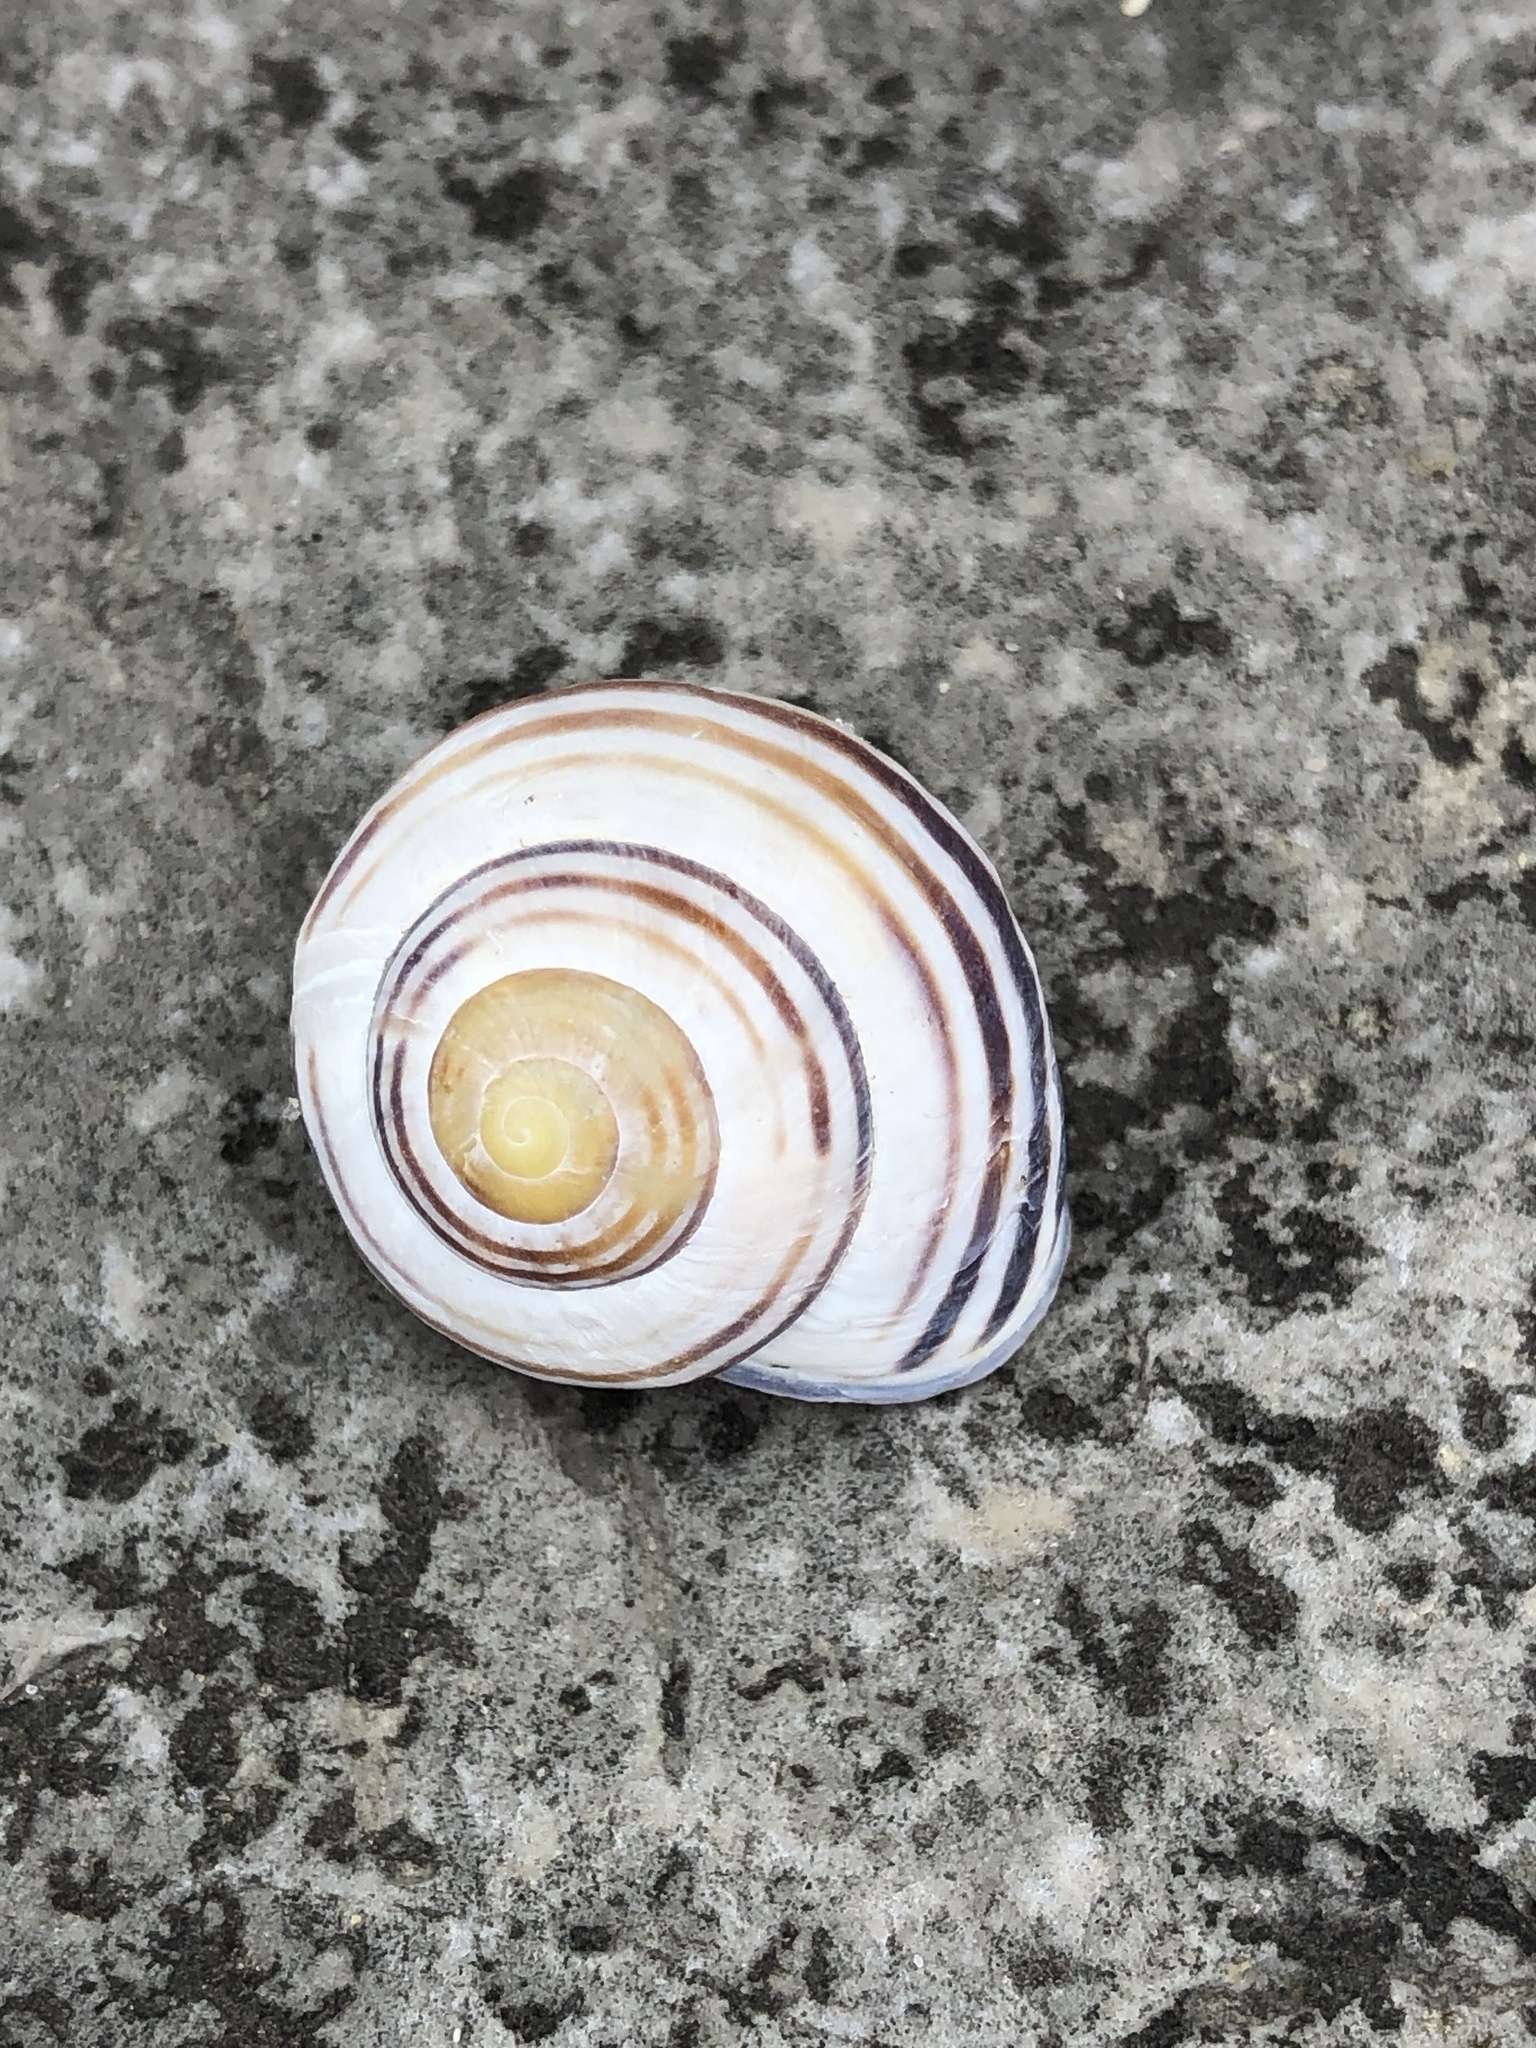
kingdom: Animalia
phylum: Mollusca
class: Gastropoda
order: Stylommatophora
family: Helicidae
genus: Cepaea
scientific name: Cepaea nemoralis
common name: Grovesnail
